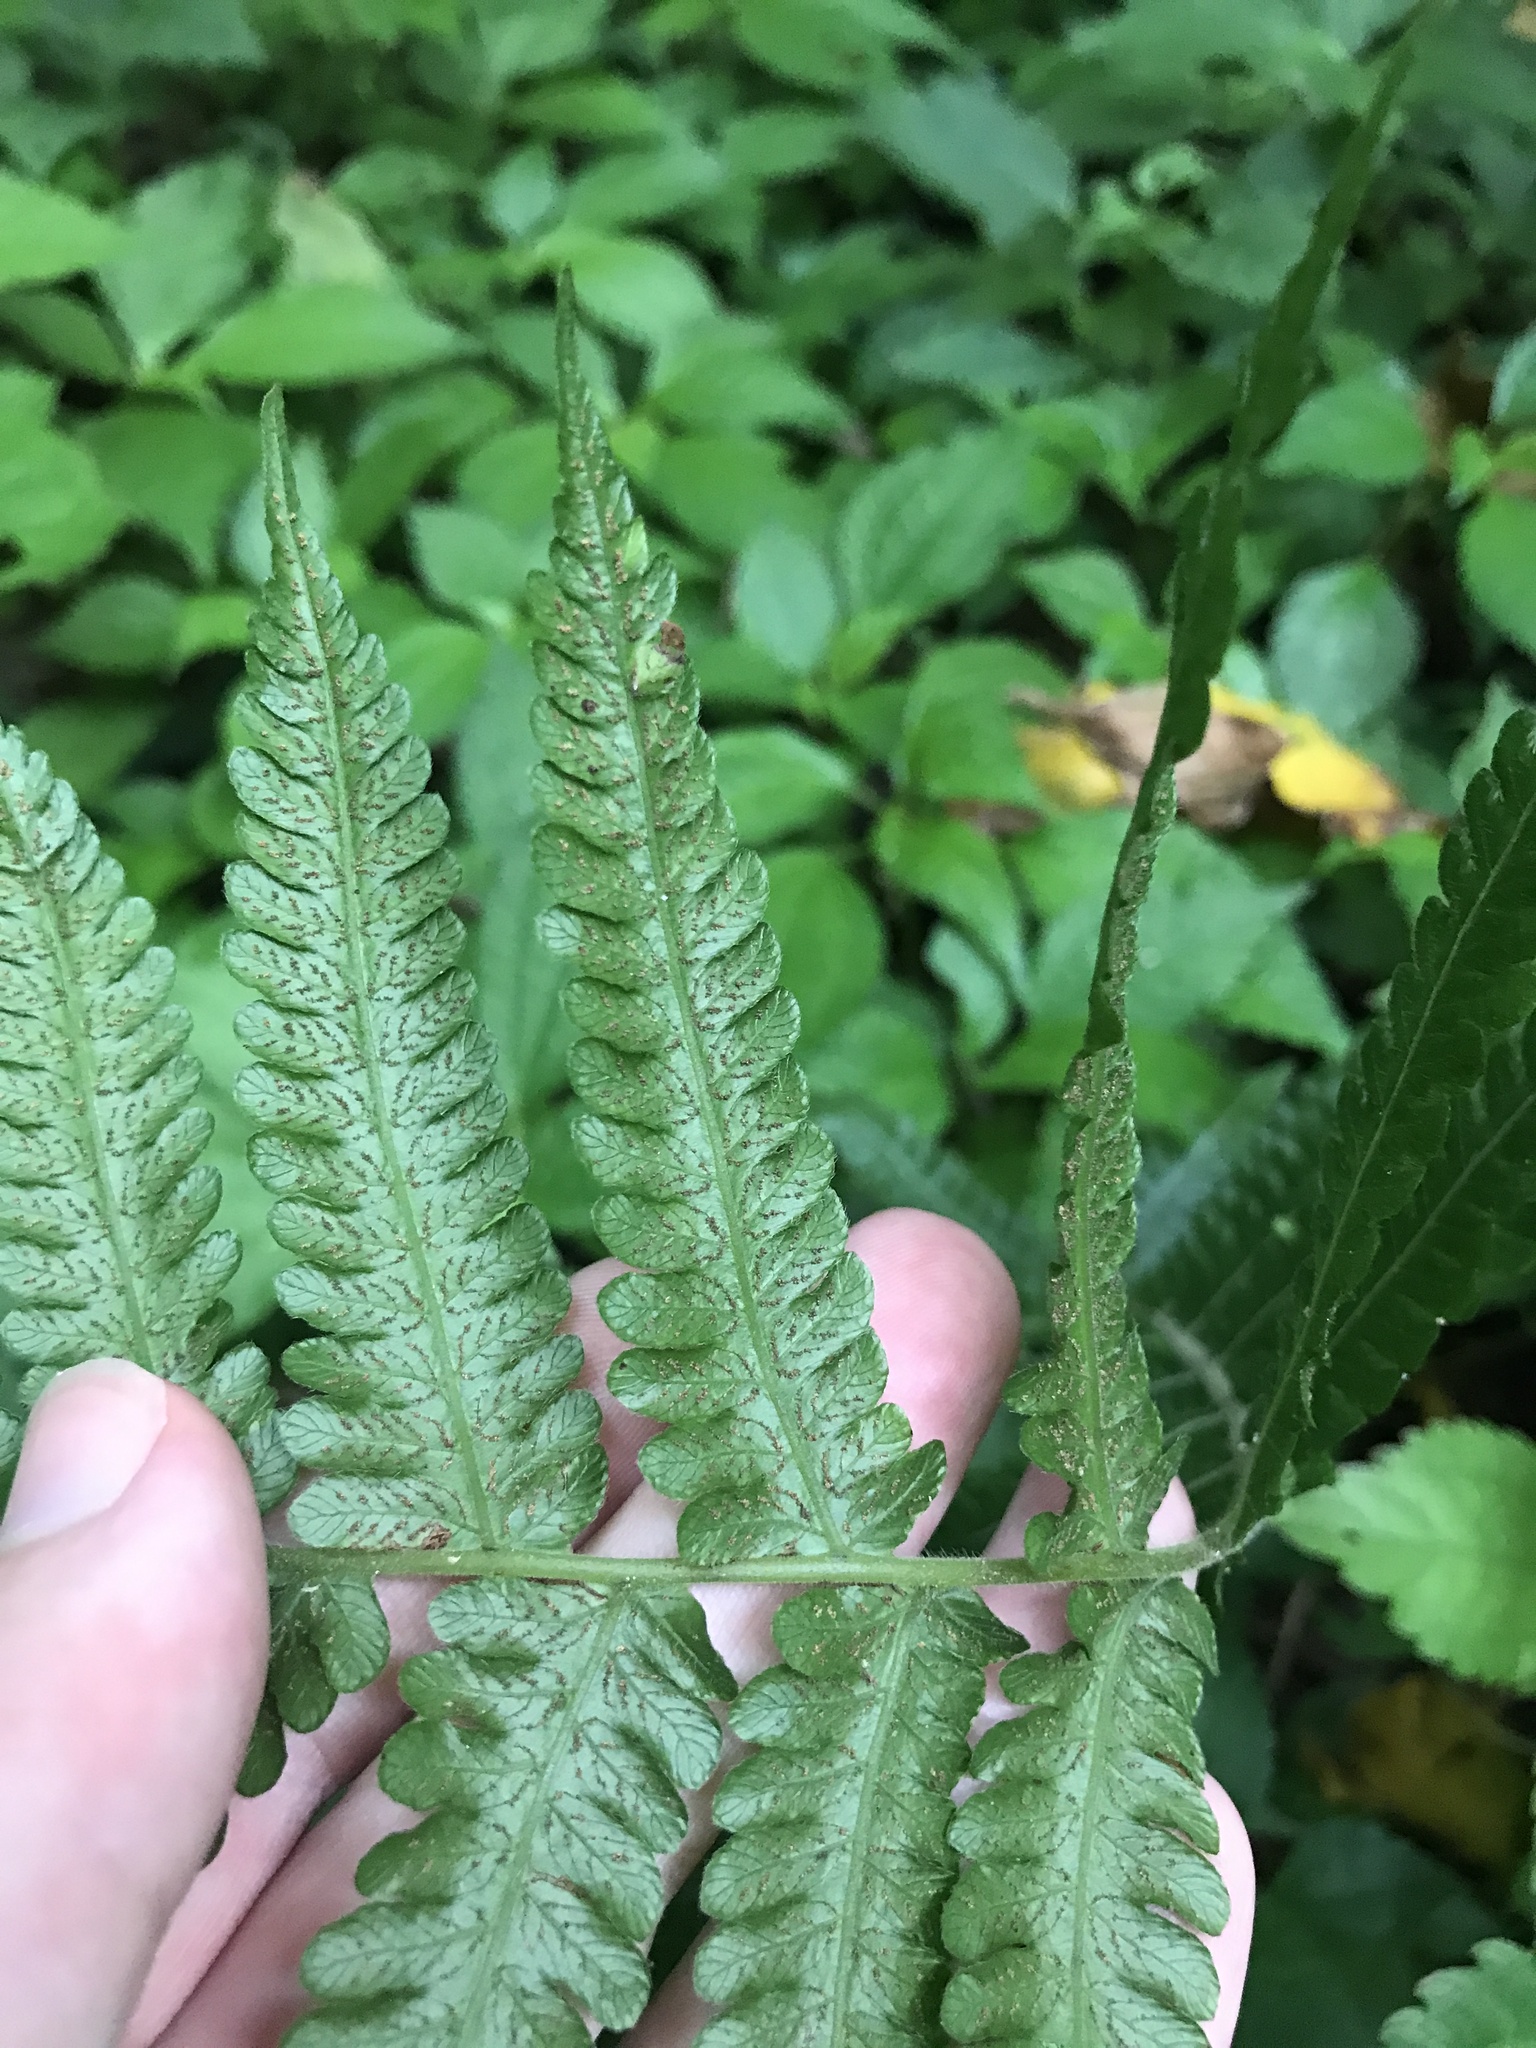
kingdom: Plantae
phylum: Tracheophyta
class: Polypodiopsida
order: Polypodiales
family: Thelypteridaceae
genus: Leptogramma
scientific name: Leptogramma mollissima
